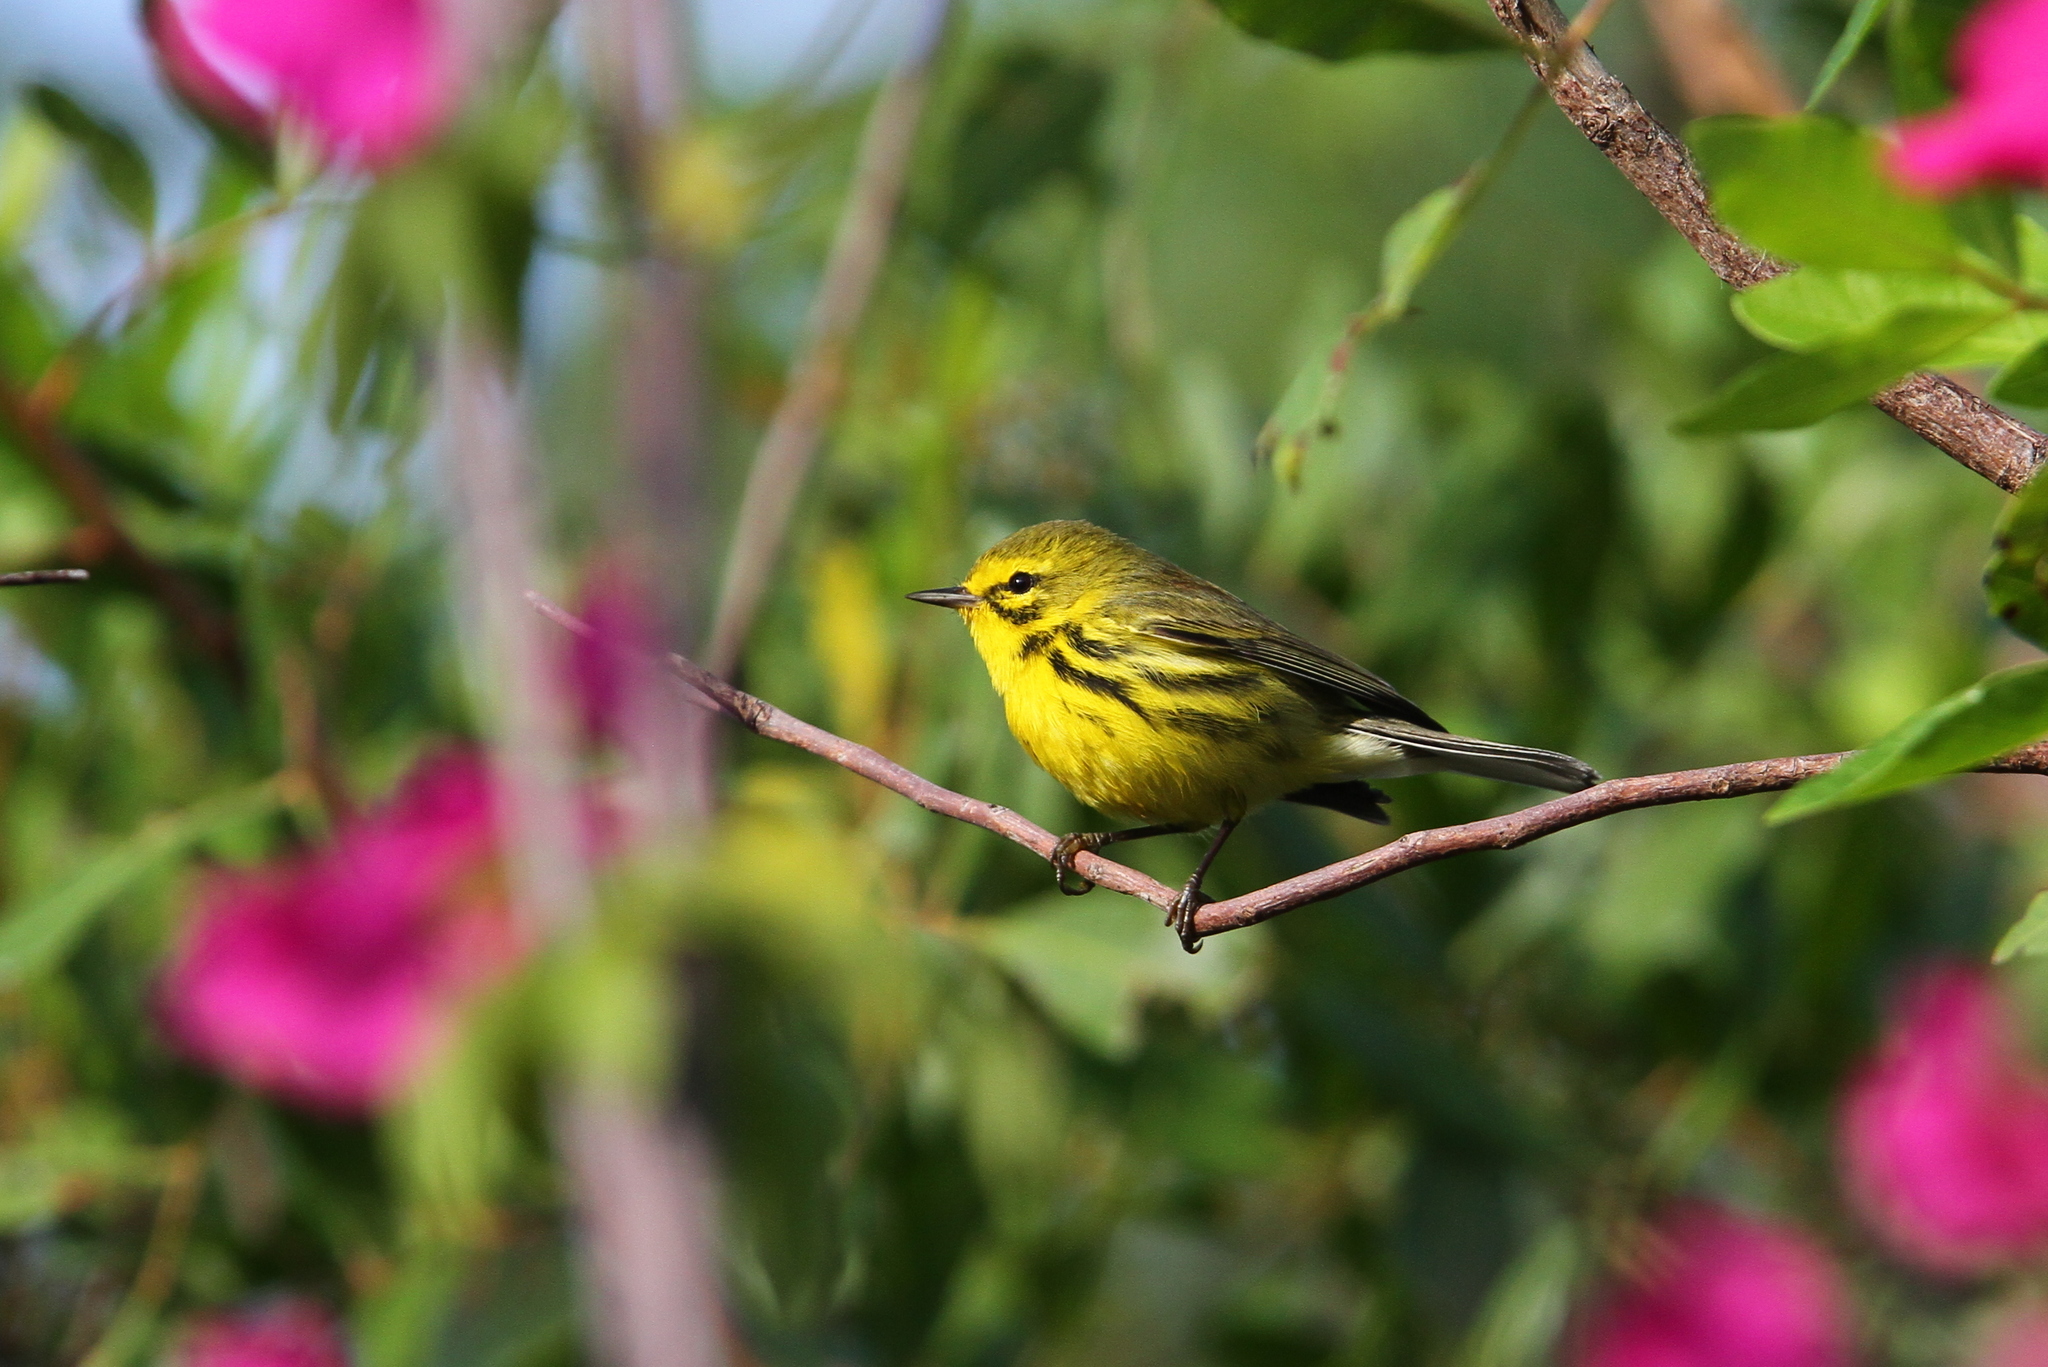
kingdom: Animalia
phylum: Chordata
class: Aves
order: Passeriformes
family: Parulidae
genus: Setophaga
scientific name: Setophaga discolor
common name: Prairie warbler
